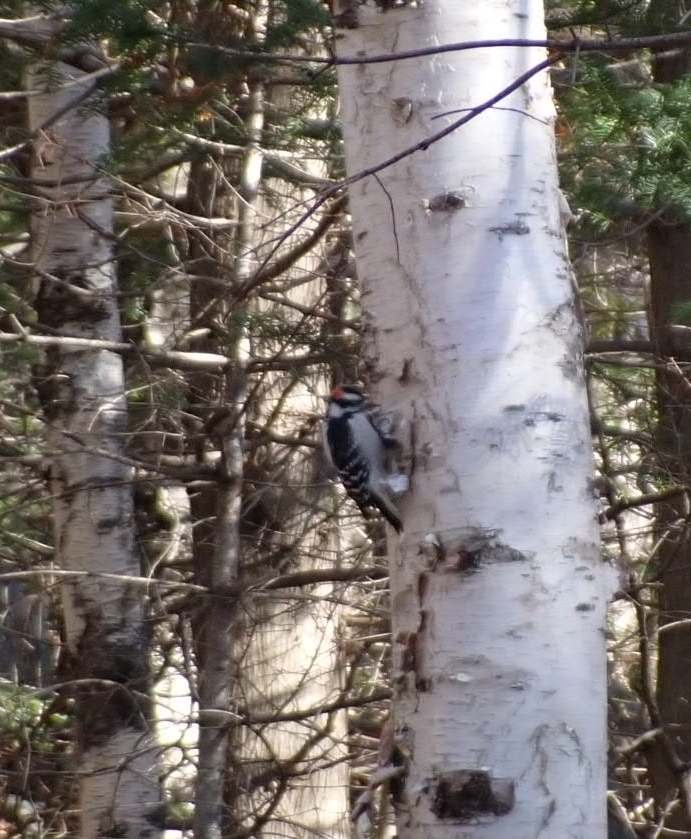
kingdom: Animalia
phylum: Chordata
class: Aves
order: Piciformes
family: Picidae
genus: Dryobates
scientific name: Dryobates pubescens
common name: Downy woodpecker
